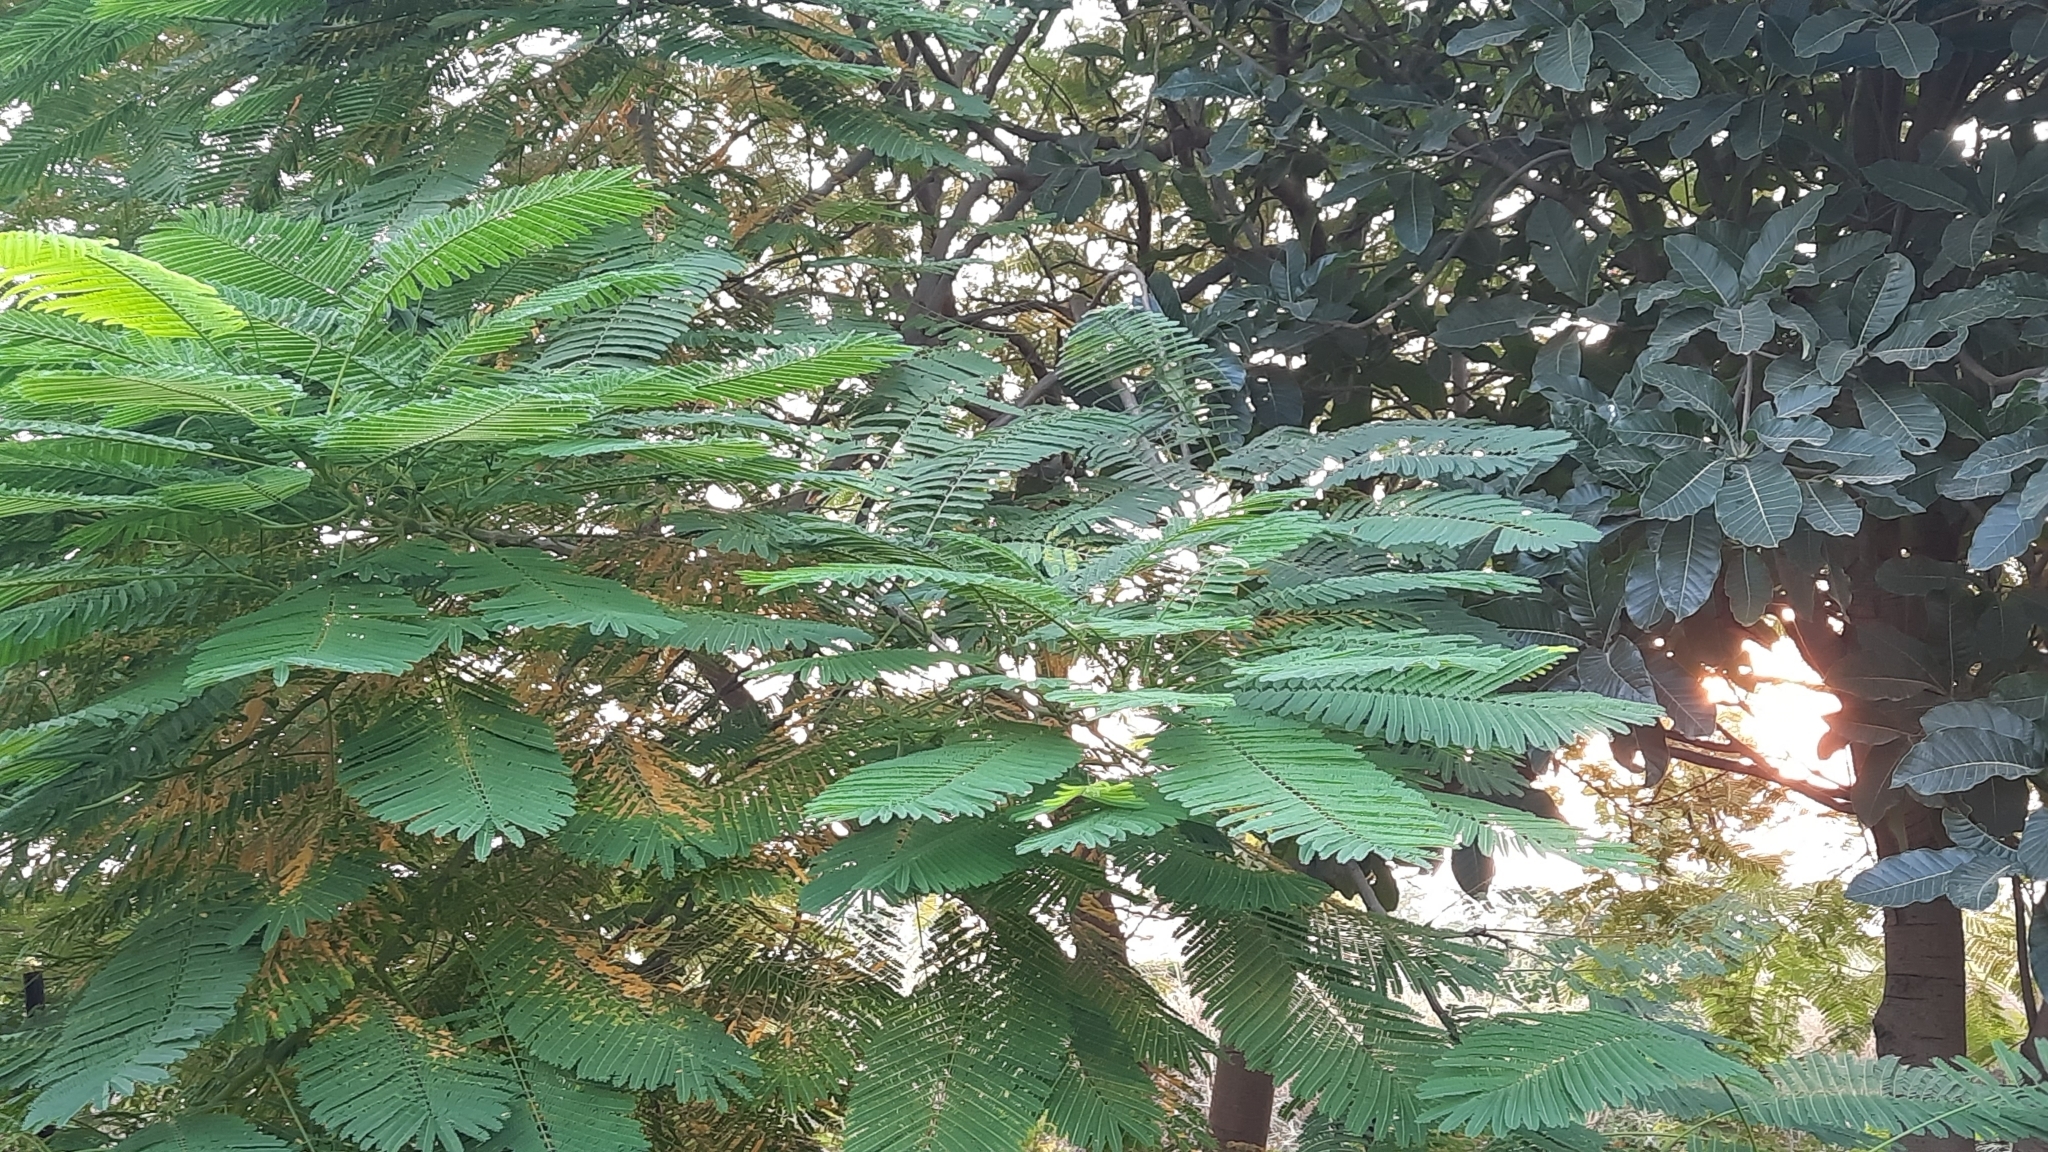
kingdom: Plantae
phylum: Tracheophyta
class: Magnoliopsida
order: Fabales
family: Fabaceae
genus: Delonix
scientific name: Delonix regia
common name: Royal poinciana
